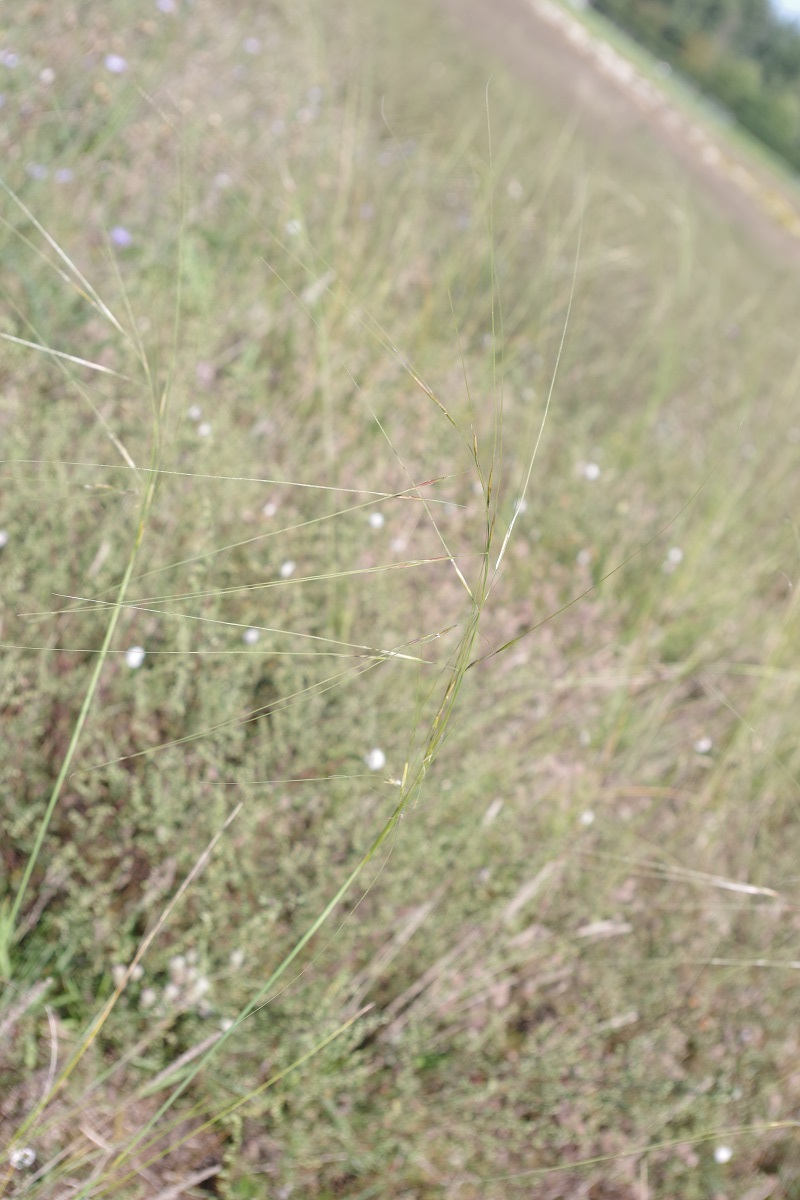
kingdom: Plantae
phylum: Tracheophyta
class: Liliopsida
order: Poales
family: Poaceae
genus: Stipa
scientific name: Stipa capillata
